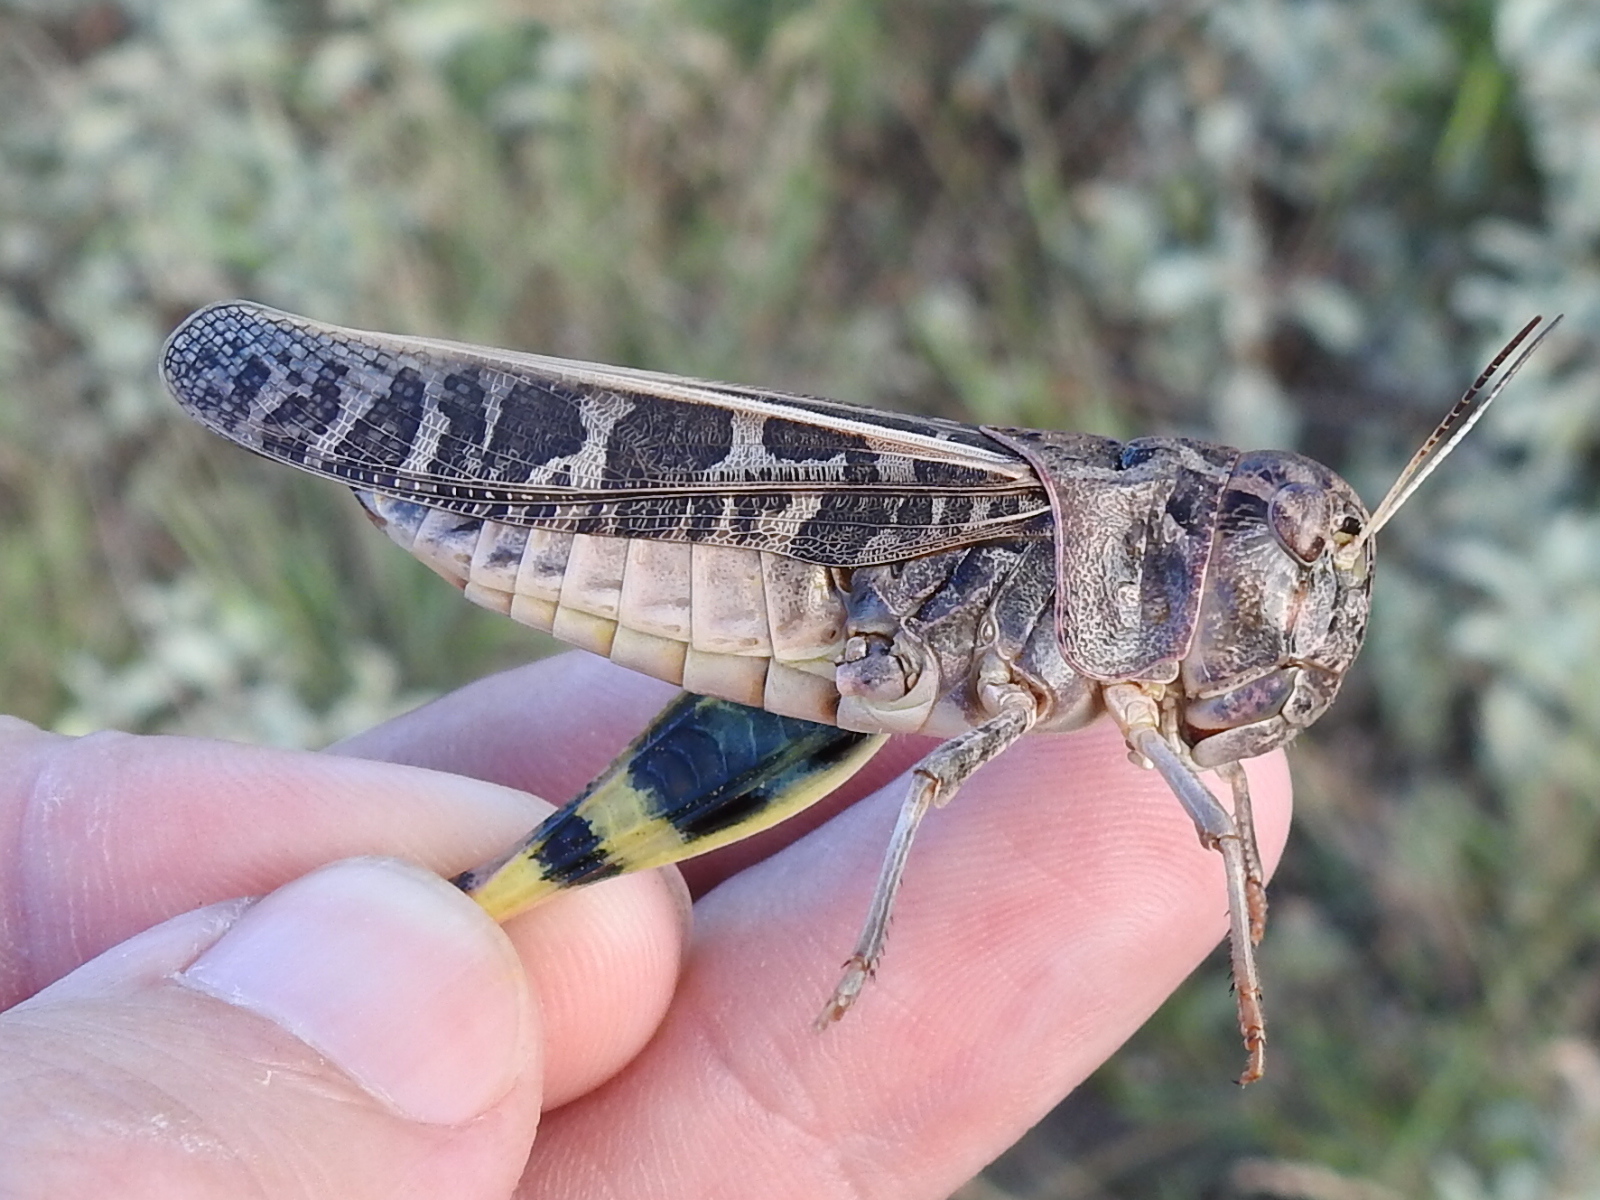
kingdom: Animalia
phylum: Arthropoda
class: Insecta
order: Orthoptera
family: Acrididae
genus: Hippiscus
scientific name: Hippiscus ocelote
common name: Wrinkled grasshopper
